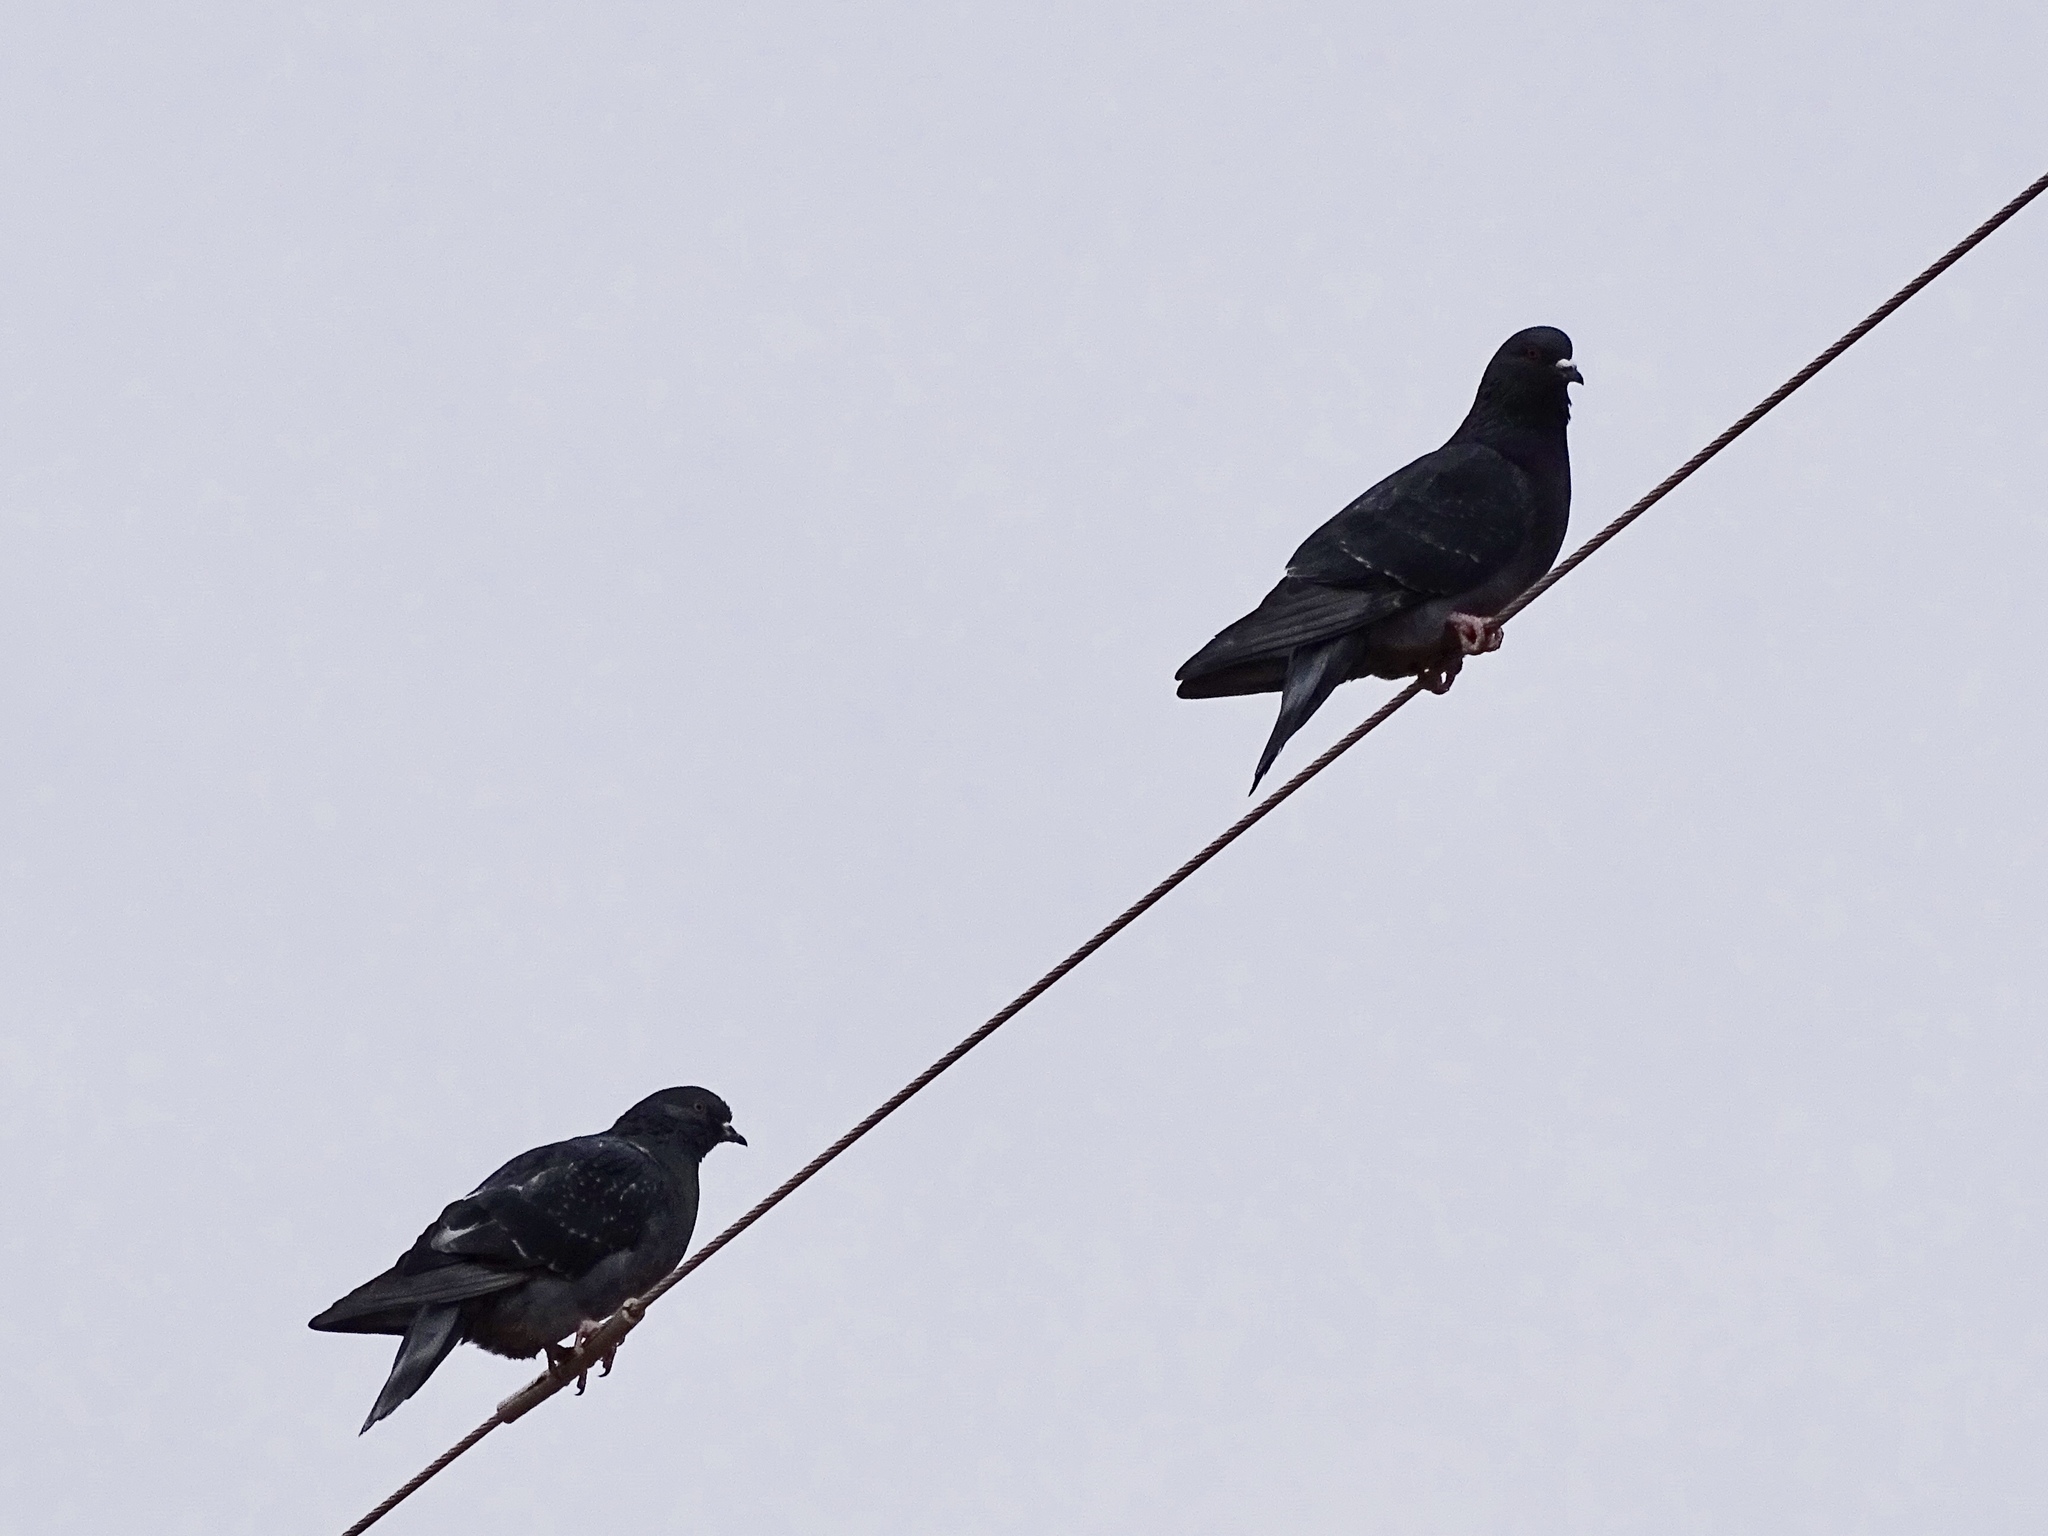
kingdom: Animalia
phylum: Chordata
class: Aves
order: Columbiformes
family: Columbidae
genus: Columba
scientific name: Columba livia
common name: Rock pigeon
